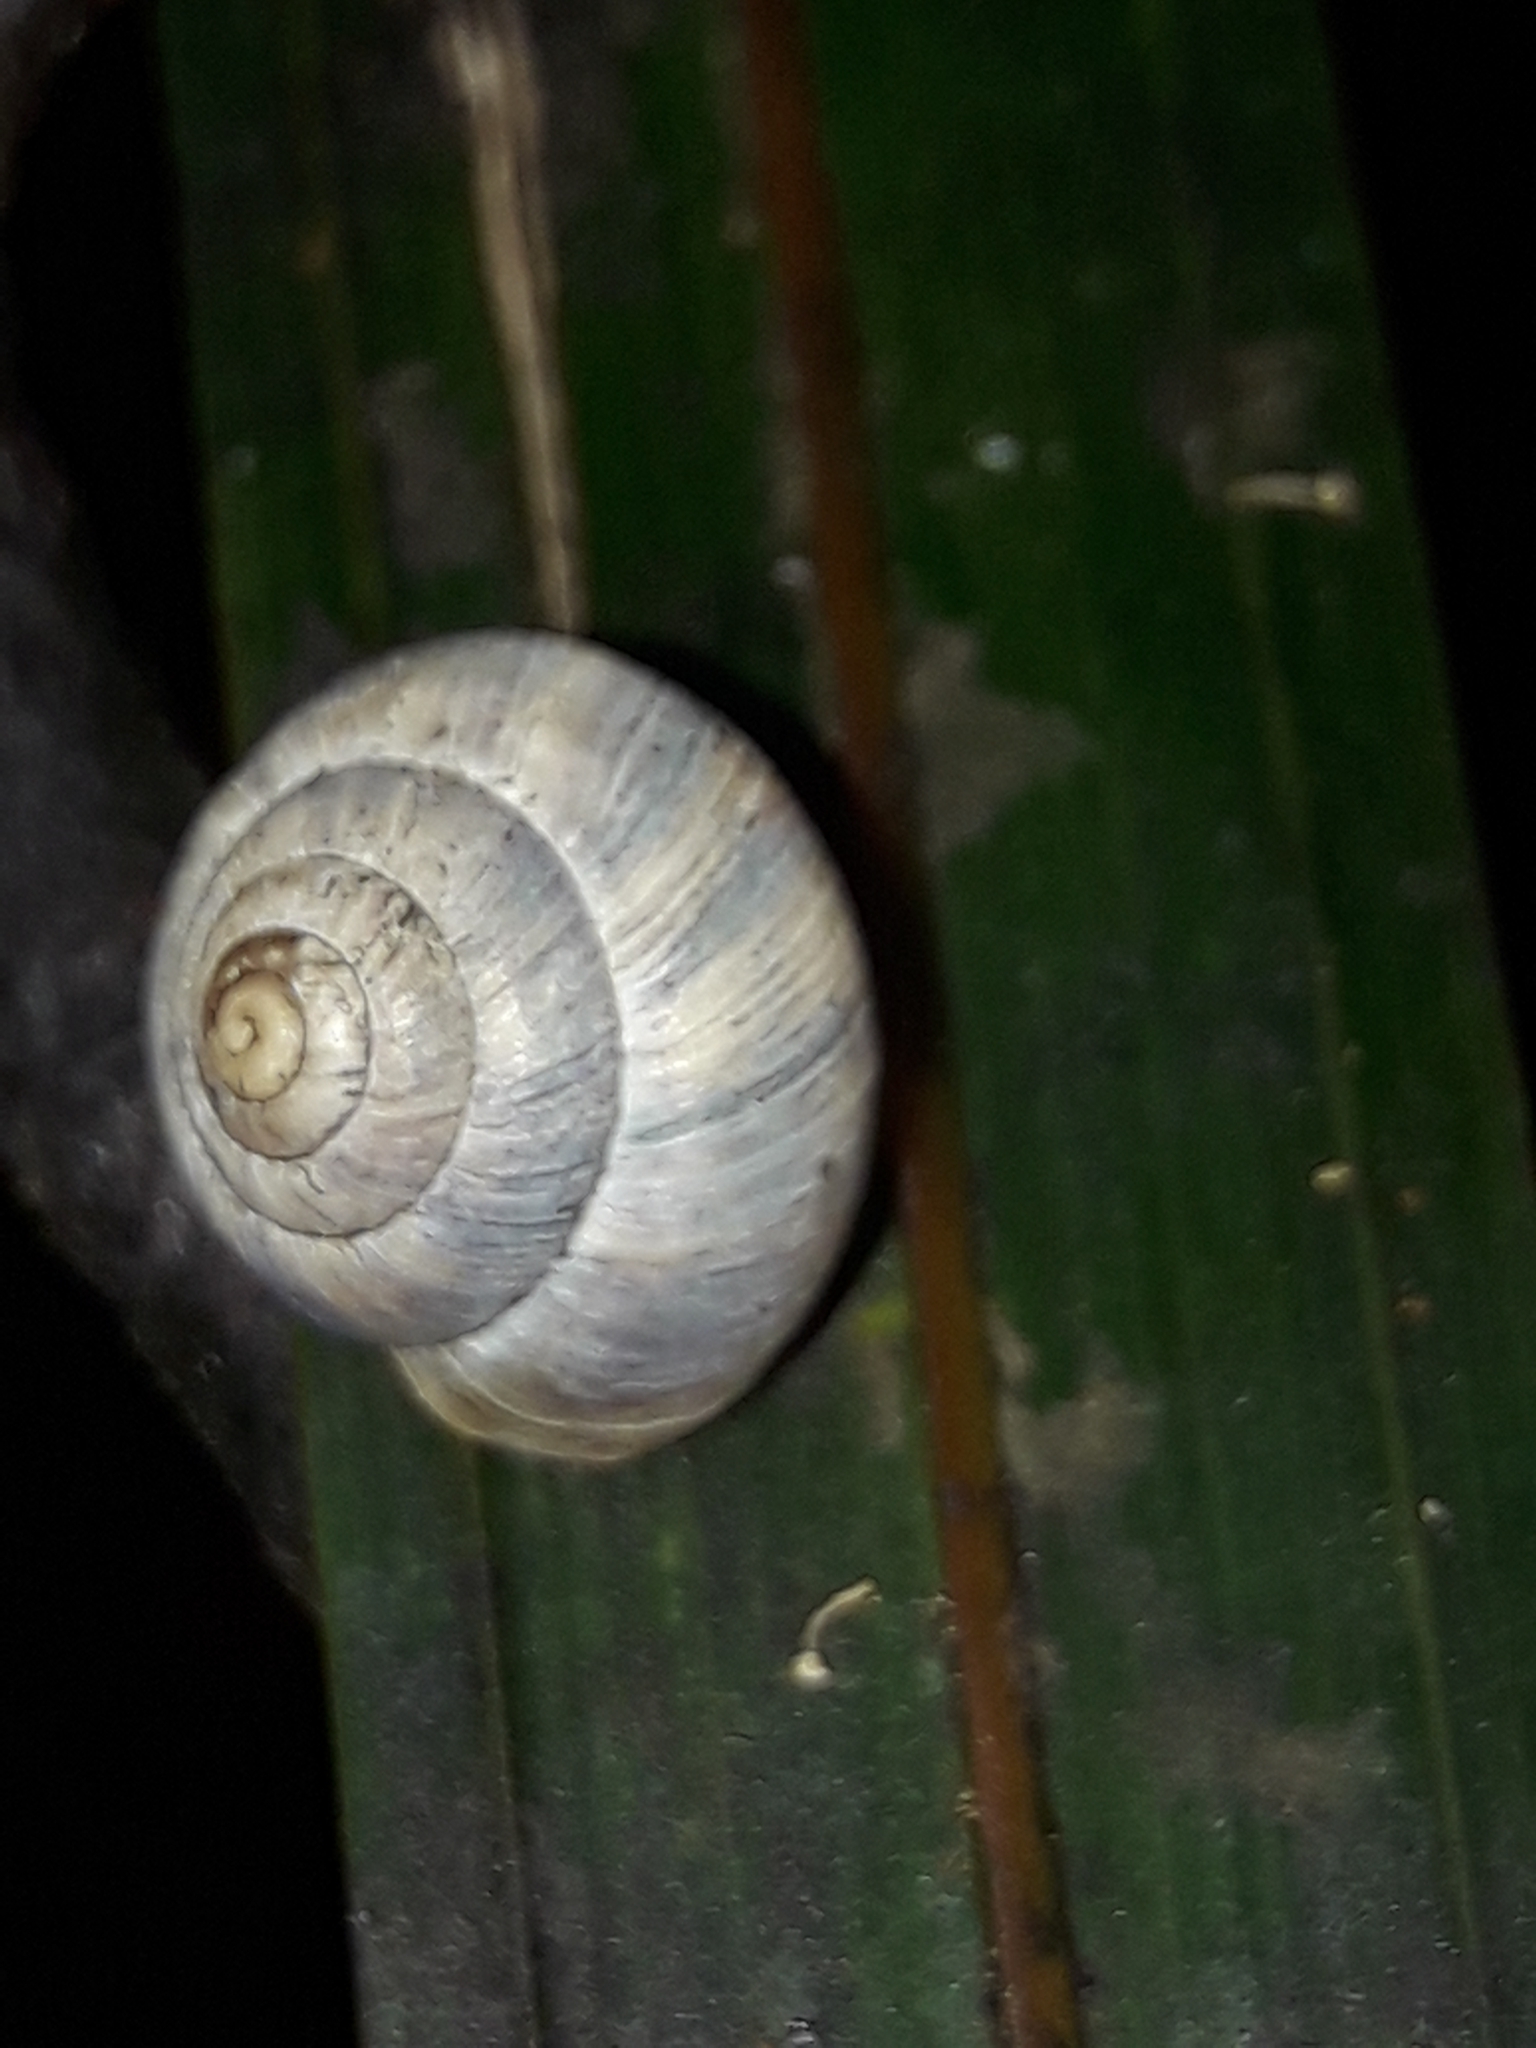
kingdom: Animalia
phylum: Mollusca
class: Gastropoda
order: Stylommatophora
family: Charopidae
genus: Serpho
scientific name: Serpho
